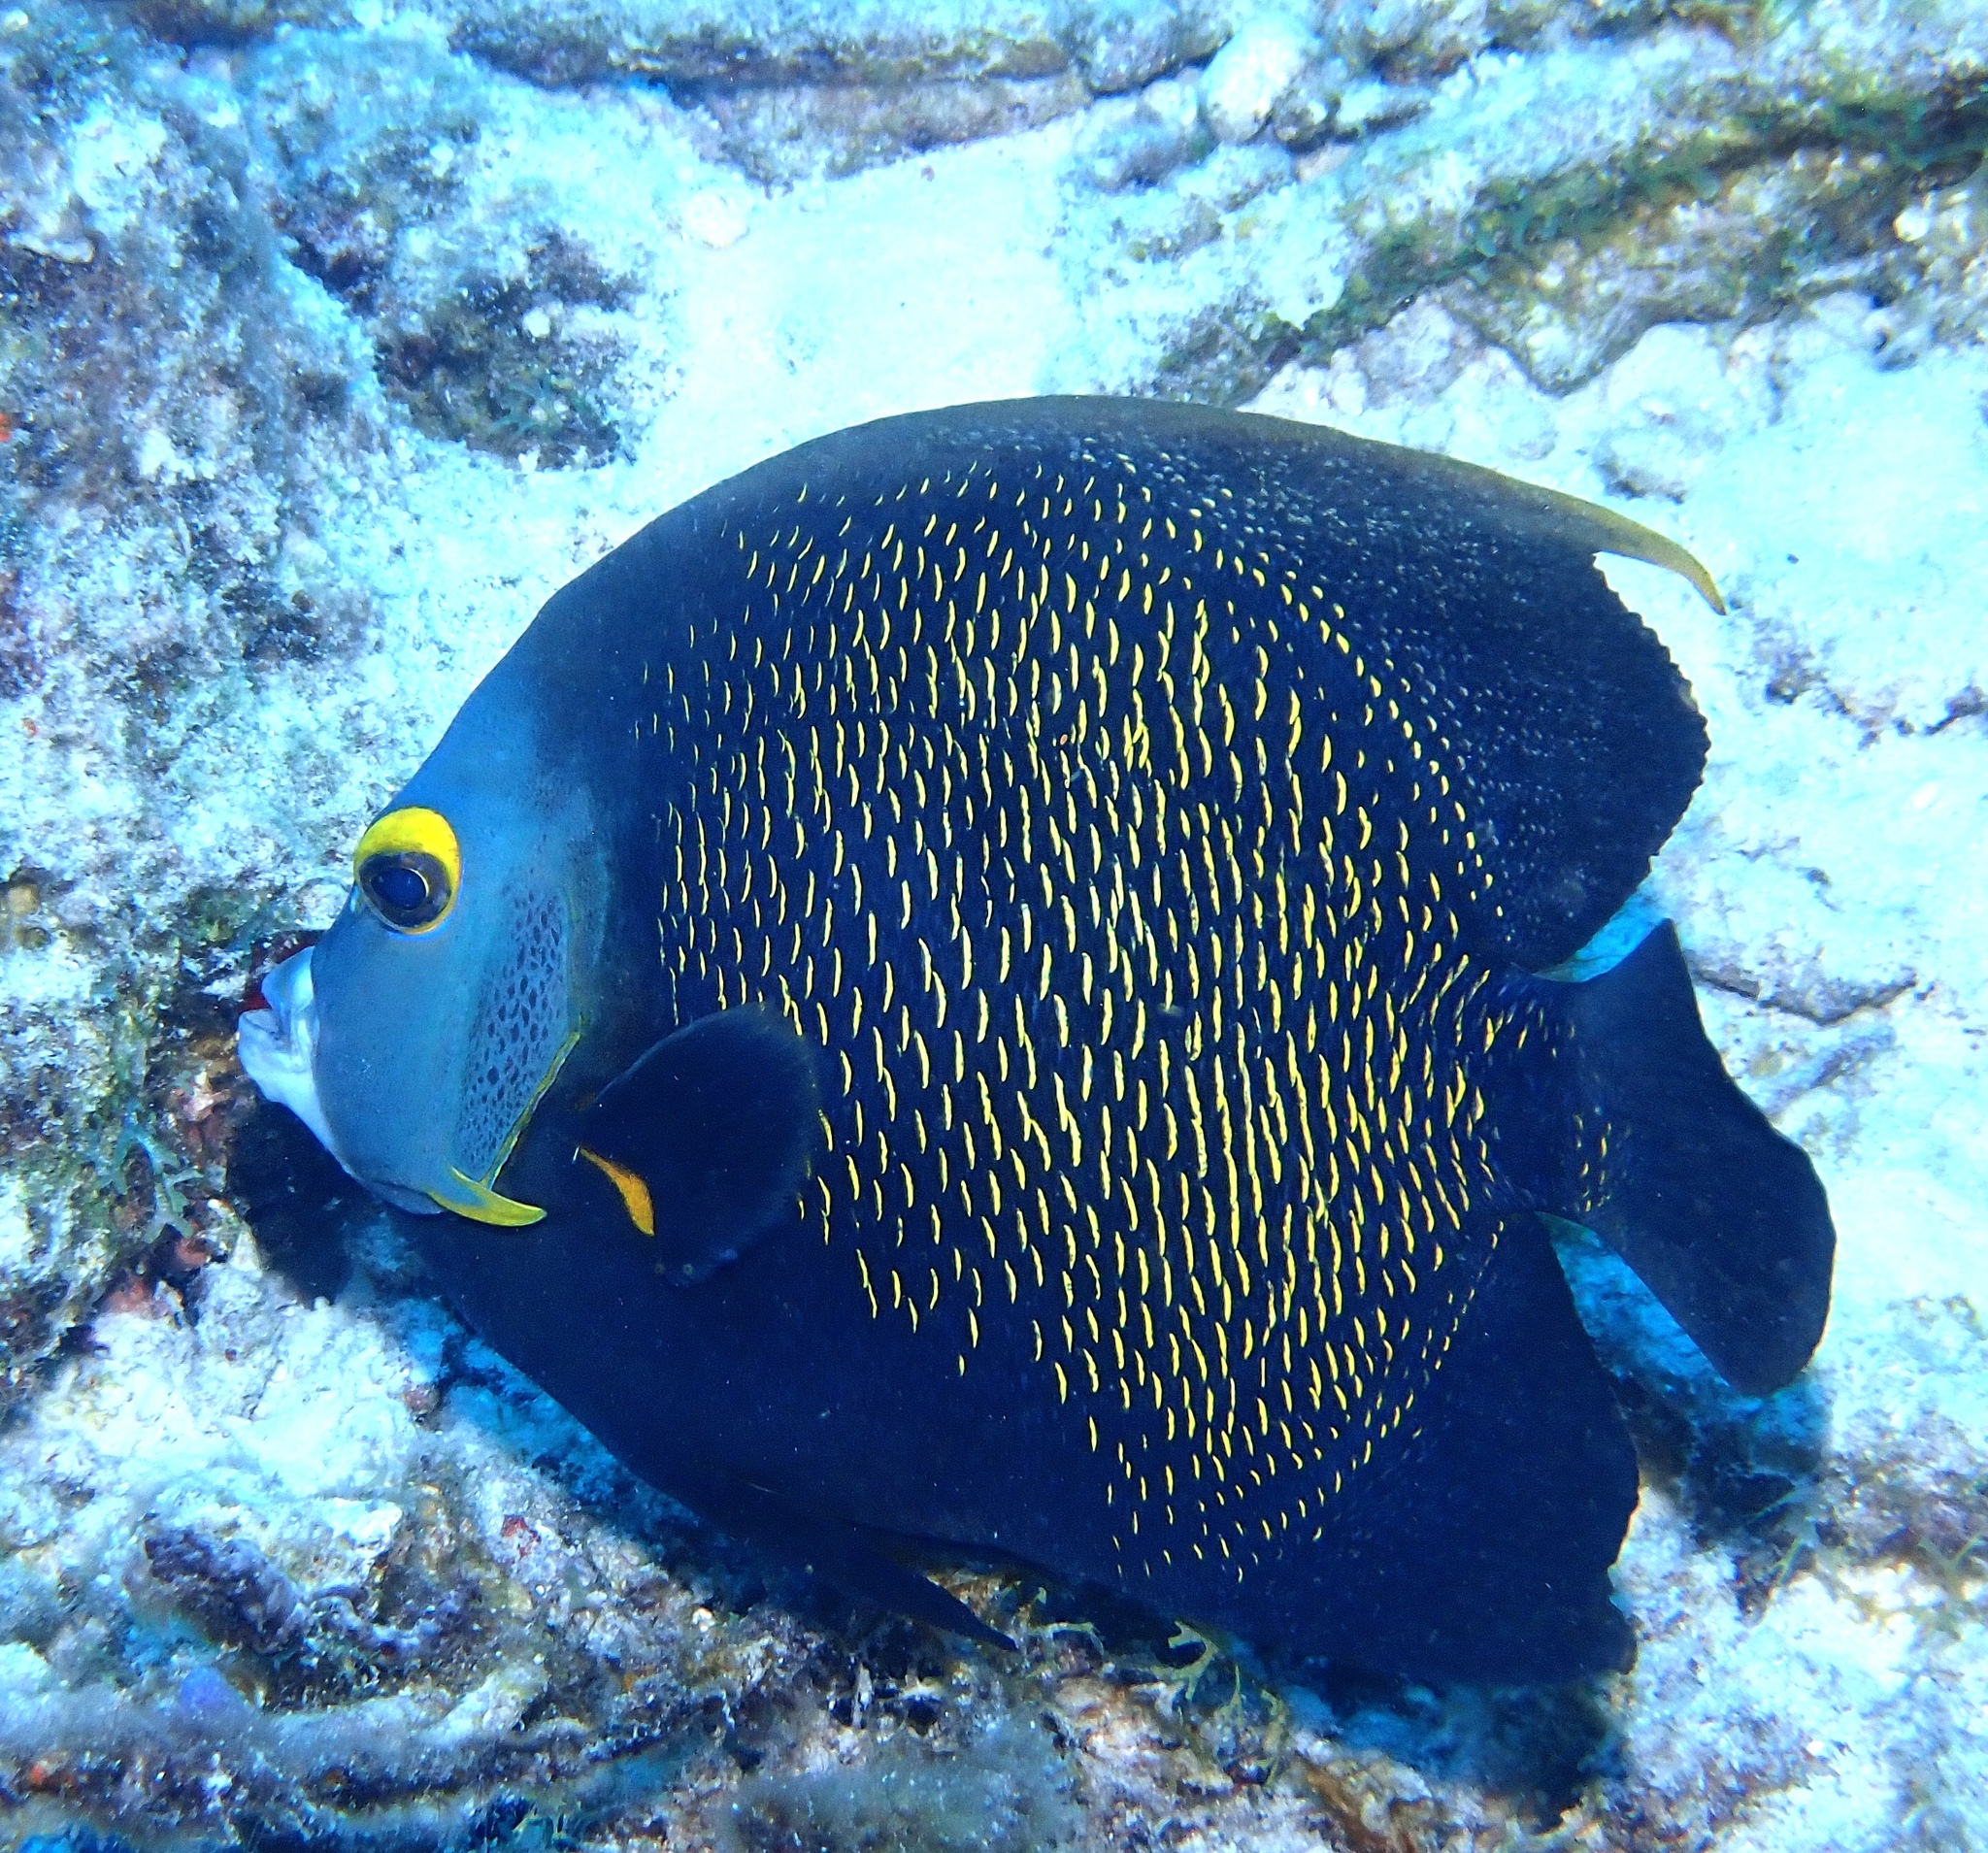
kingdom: Animalia
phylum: Chordata
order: Perciformes
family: Pomacanthidae
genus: Pomacanthus
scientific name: Pomacanthus paru
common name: French angelfish
